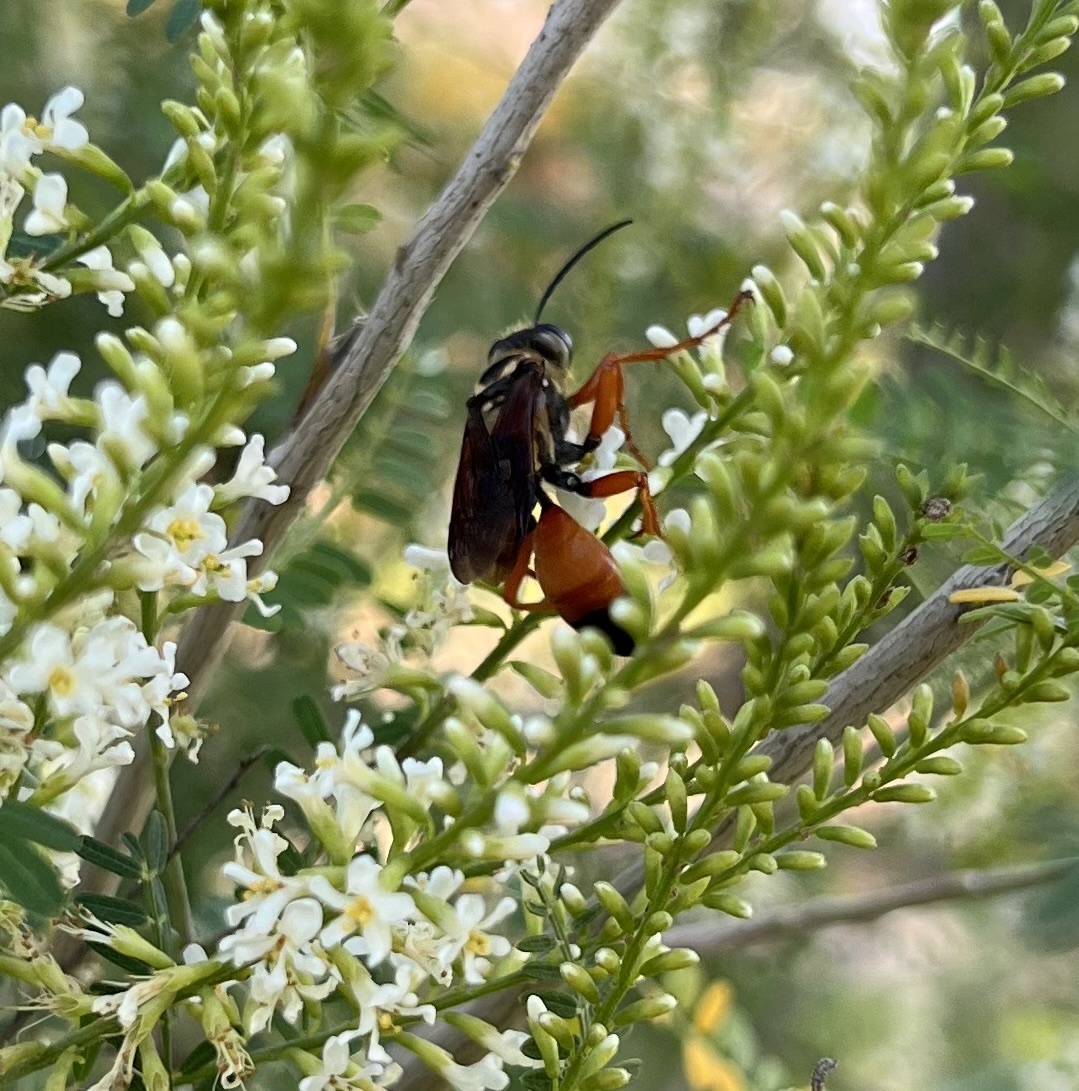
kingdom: Animalia
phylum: Arthropoda
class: Insecta
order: Hymenoptera
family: Sphecidae
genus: Sphex
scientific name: Sphex ichneumoneus
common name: Great golden digger wasp
